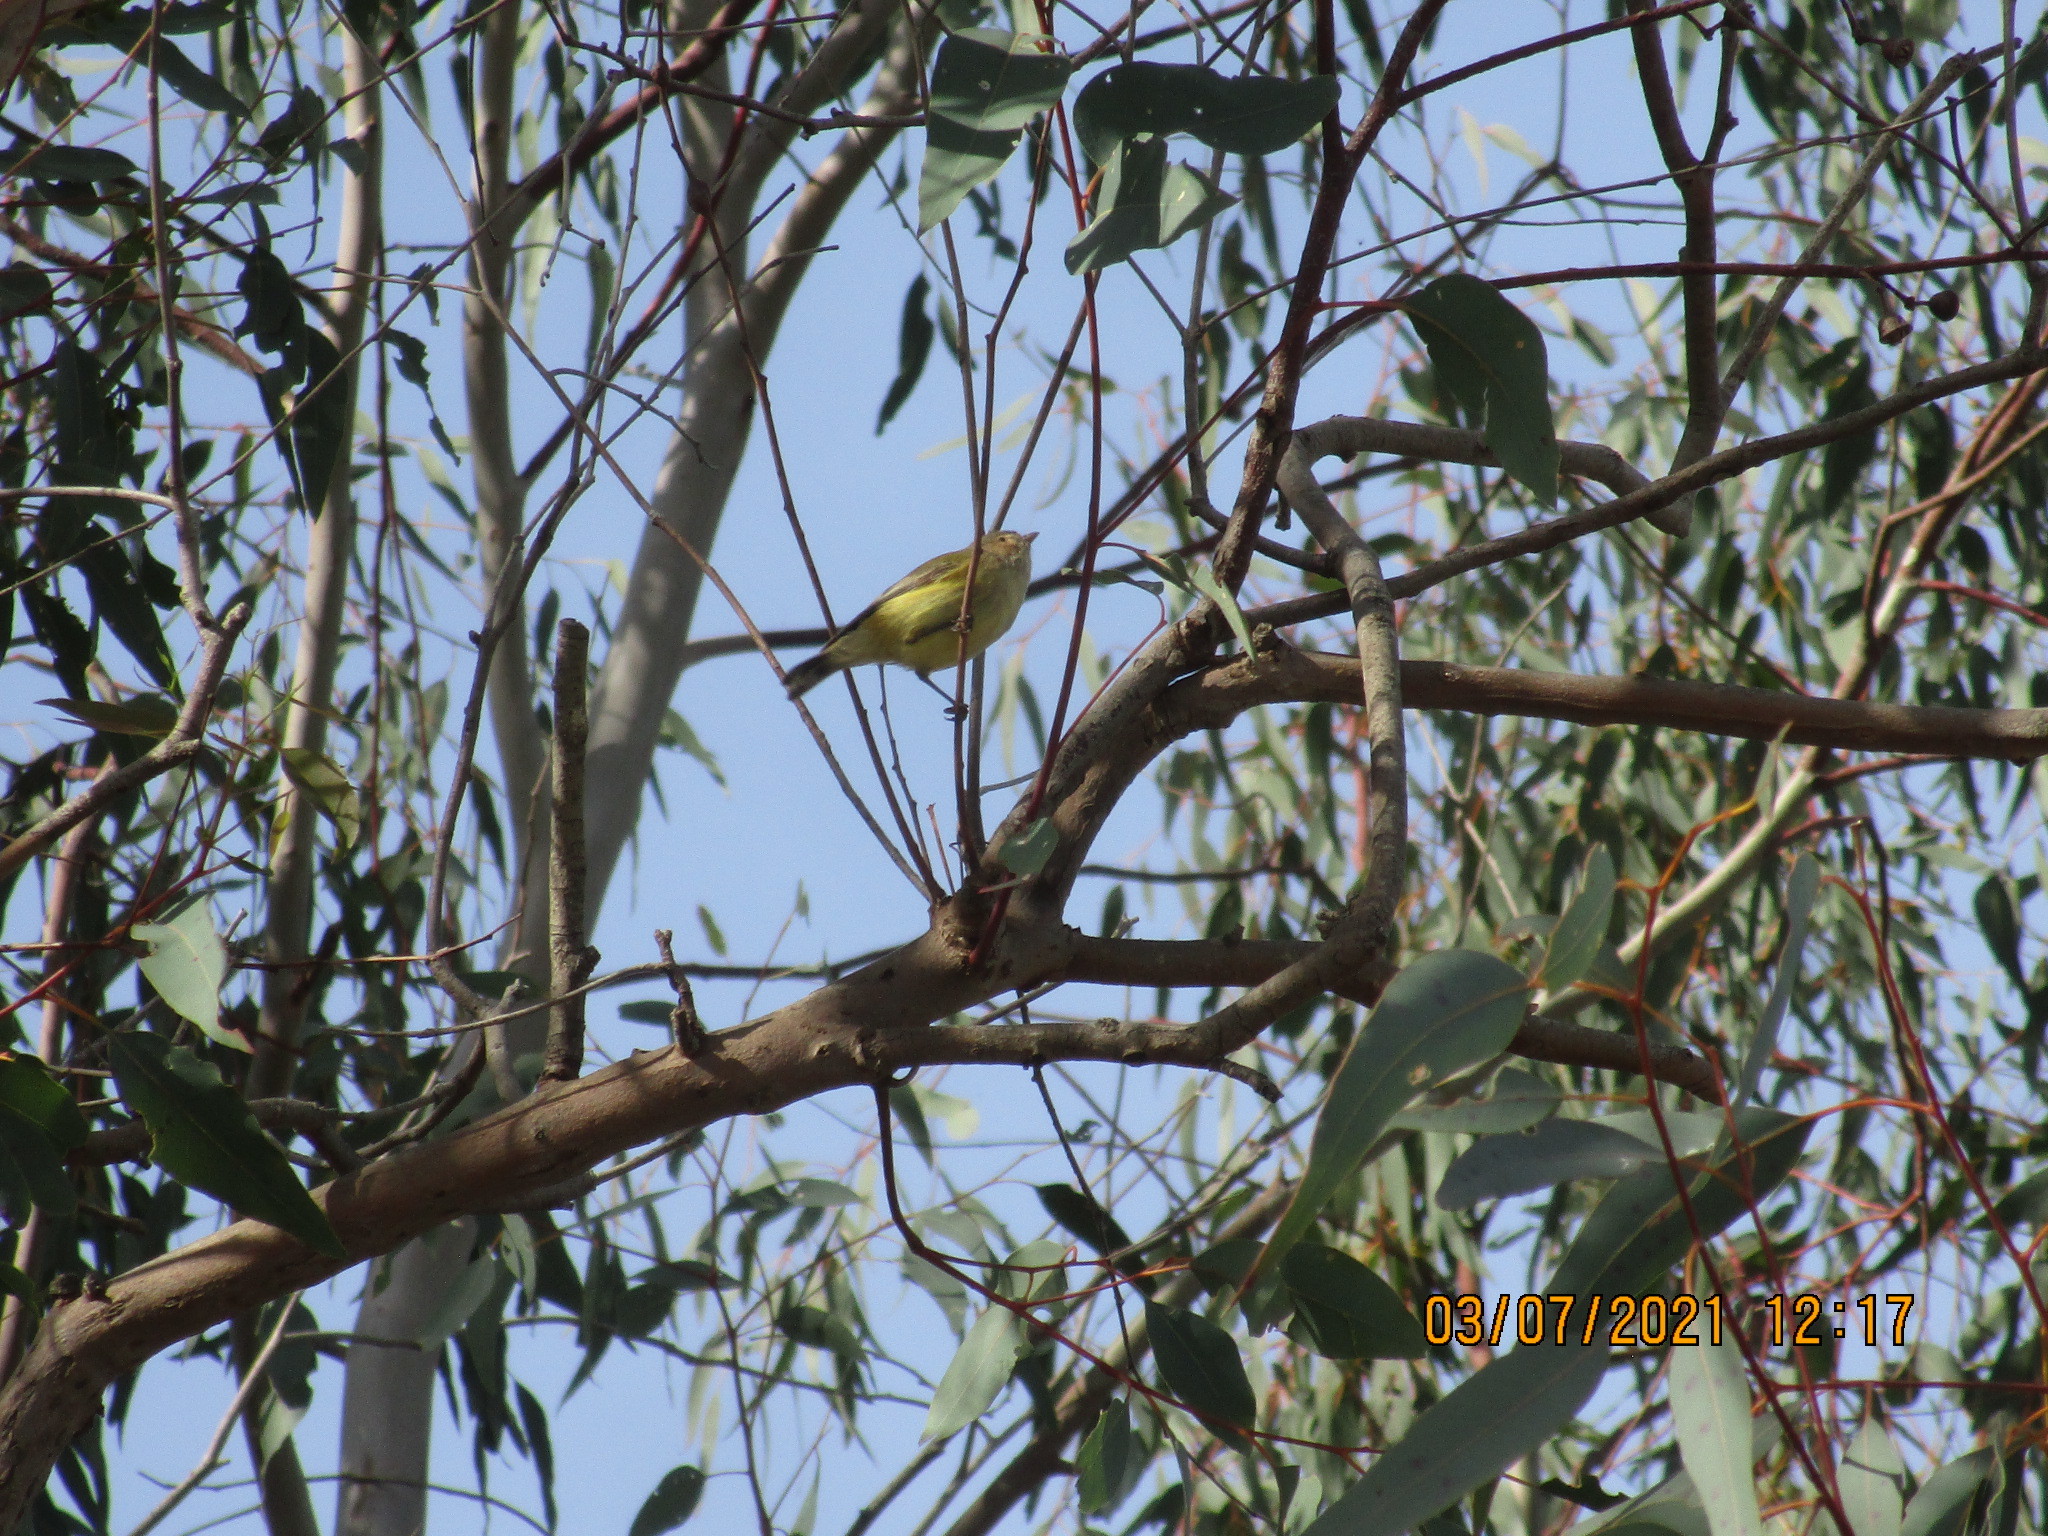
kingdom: Animalia
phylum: Chordata
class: Aves
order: Passeriformes
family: Acanthizidae
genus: Smicrornis
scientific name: Smicrornis brevirostris
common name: Weebill
